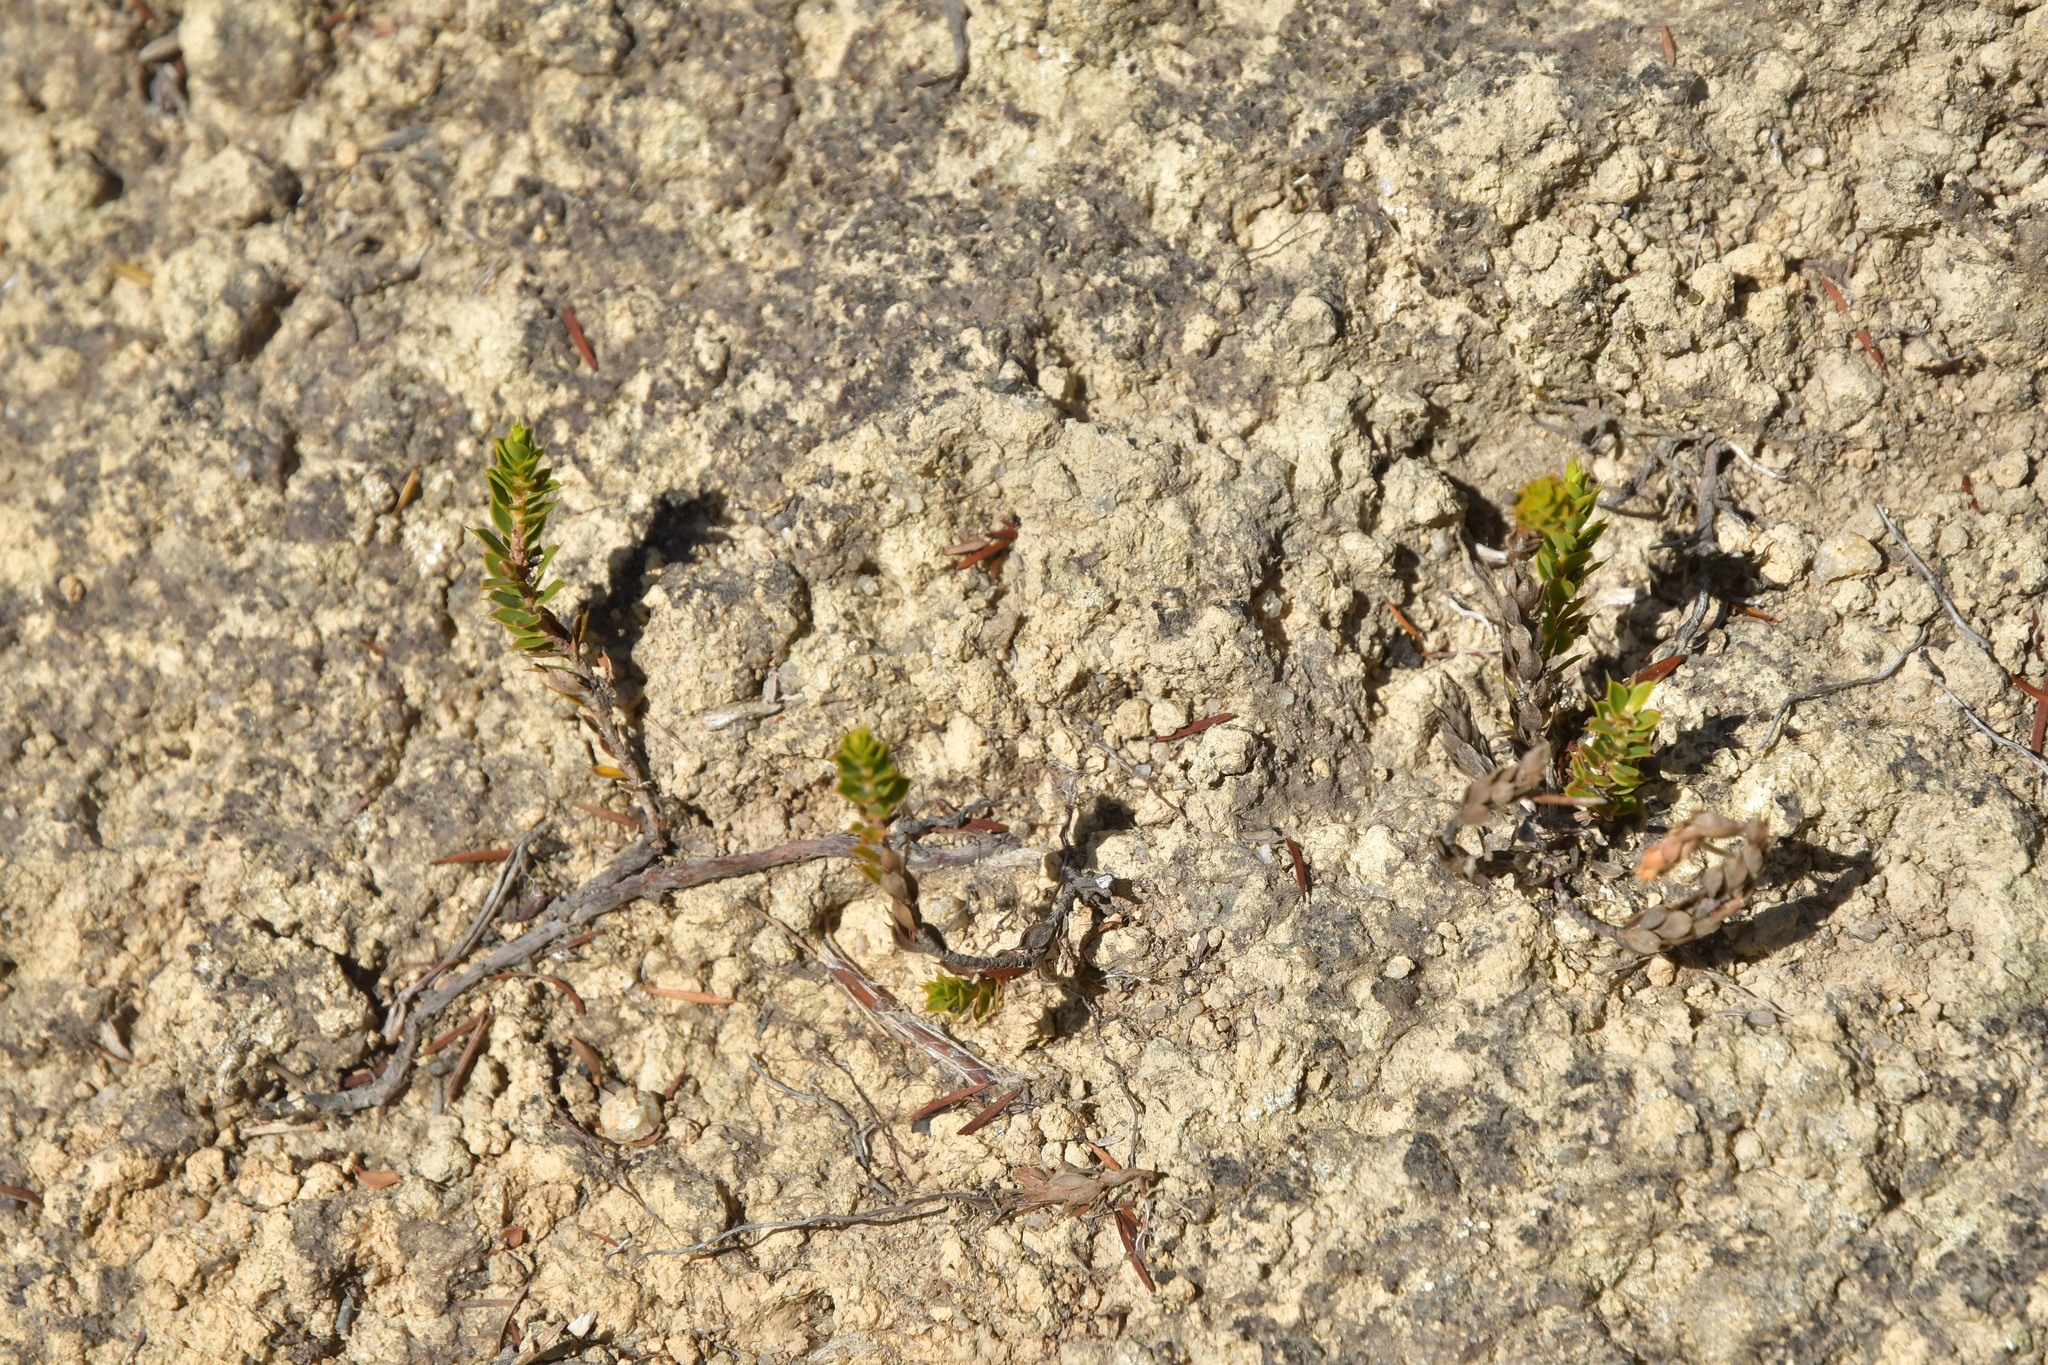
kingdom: Plantae
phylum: Tracheophyta
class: Magnoliopsida
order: Ericales
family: Ericaceae
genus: Styphelia
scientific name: Styphelia nesophila
